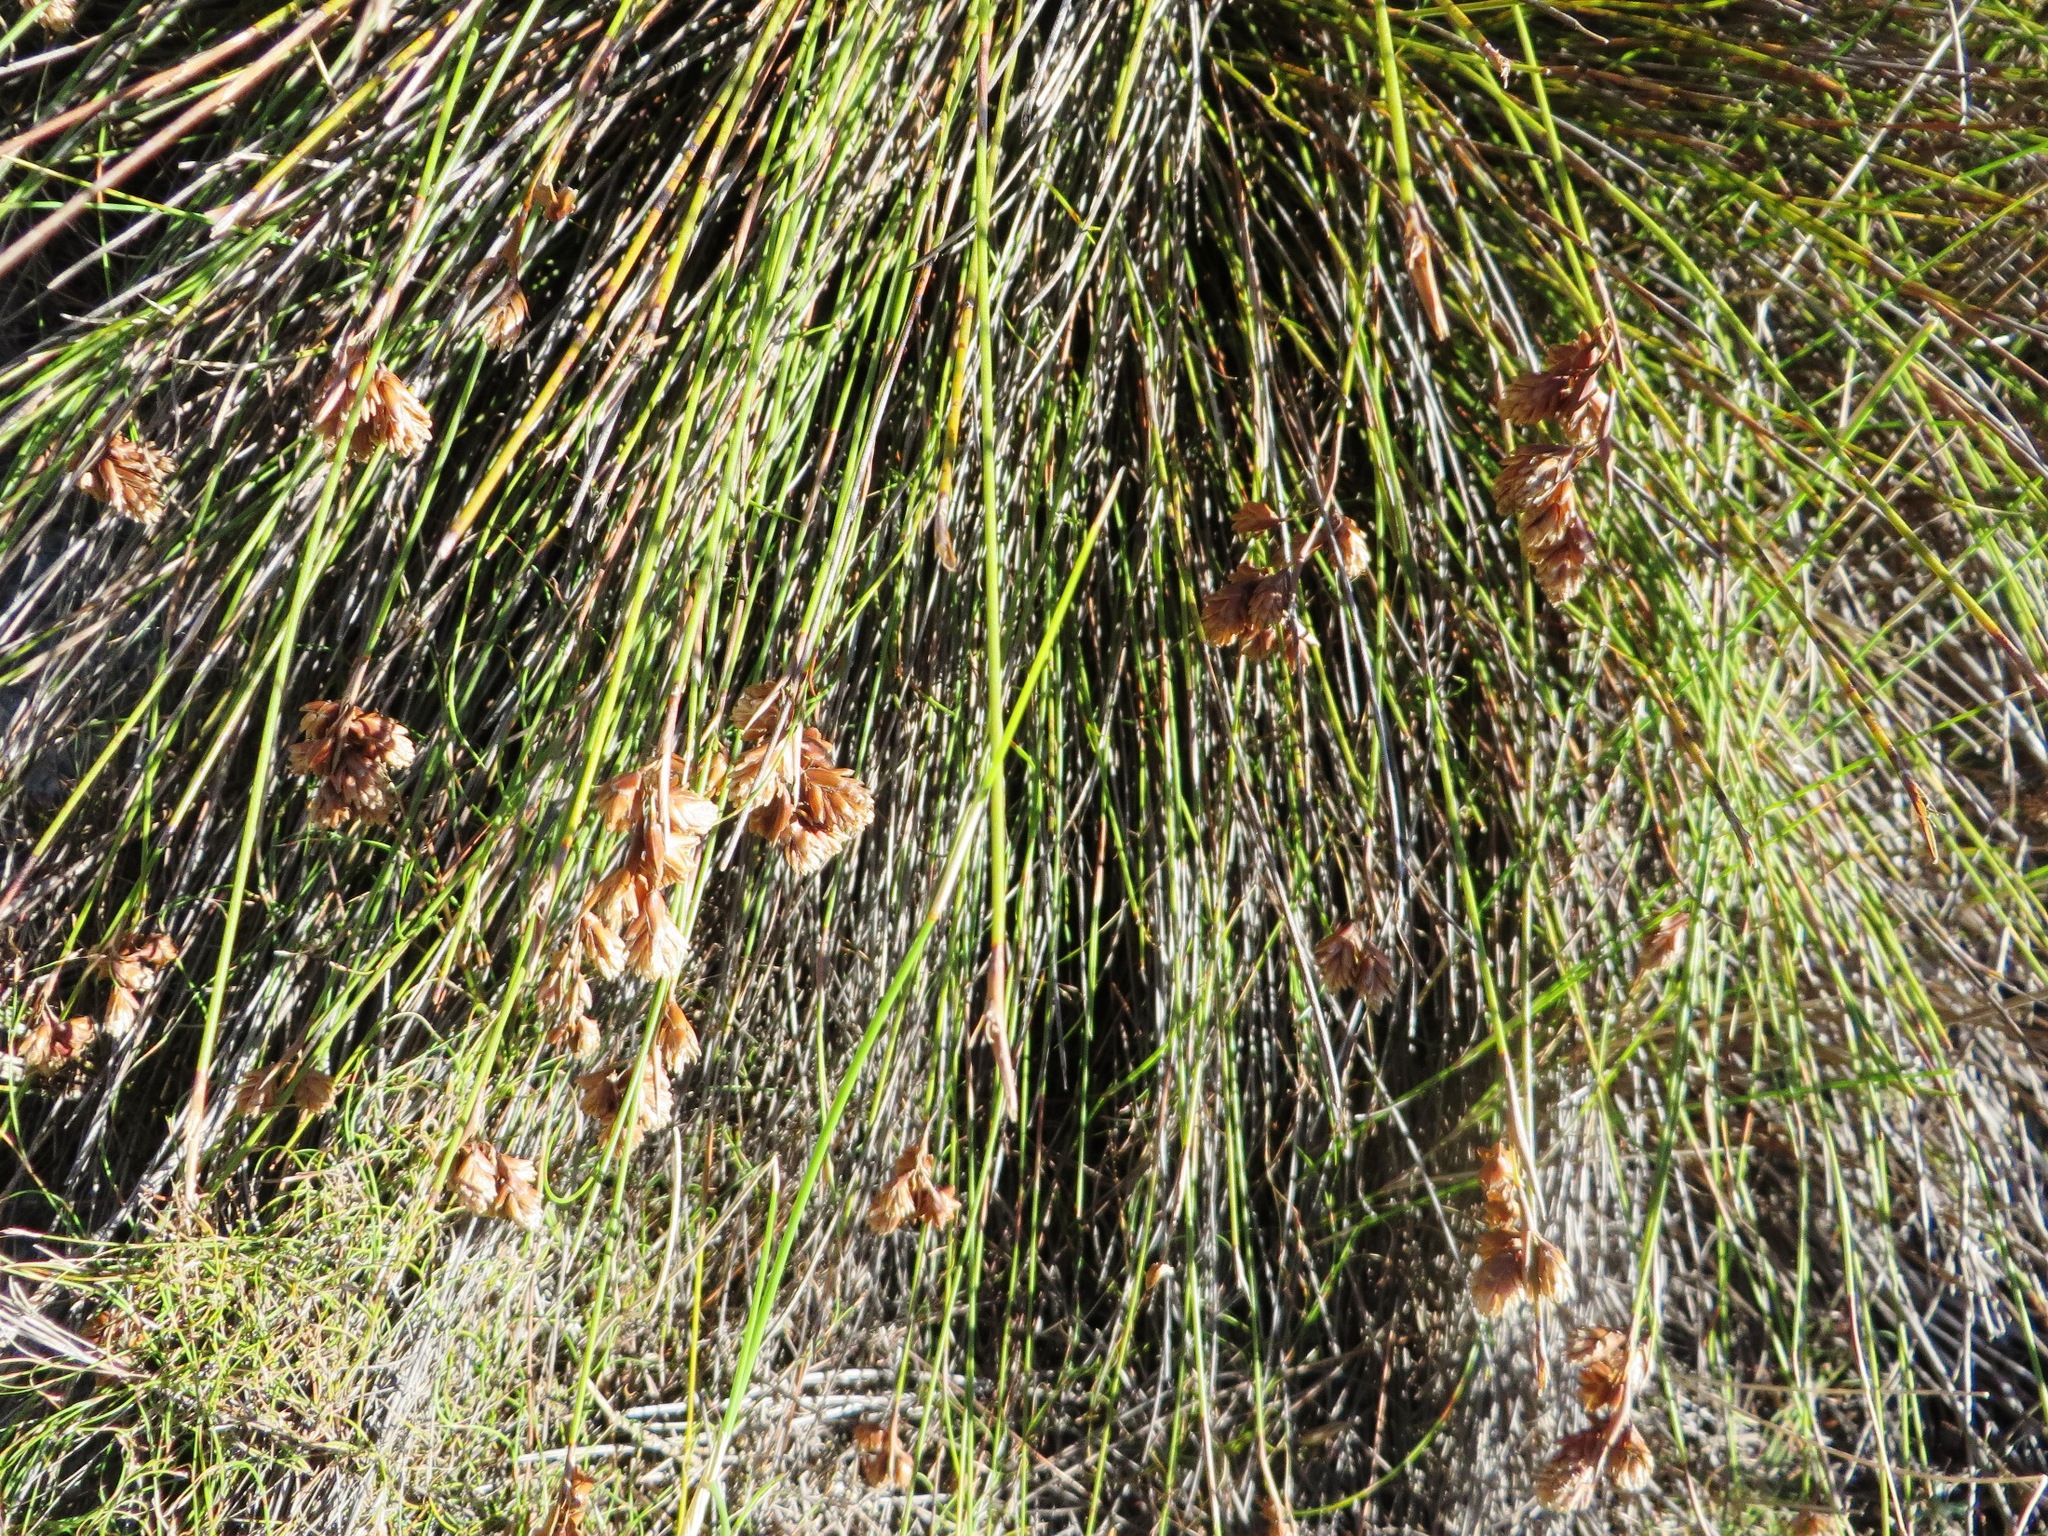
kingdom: Plantae
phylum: Tracheophyta
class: Liliopsida
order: Poales
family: Restionaceae
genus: Staberoha
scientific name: Staberoha cernua
